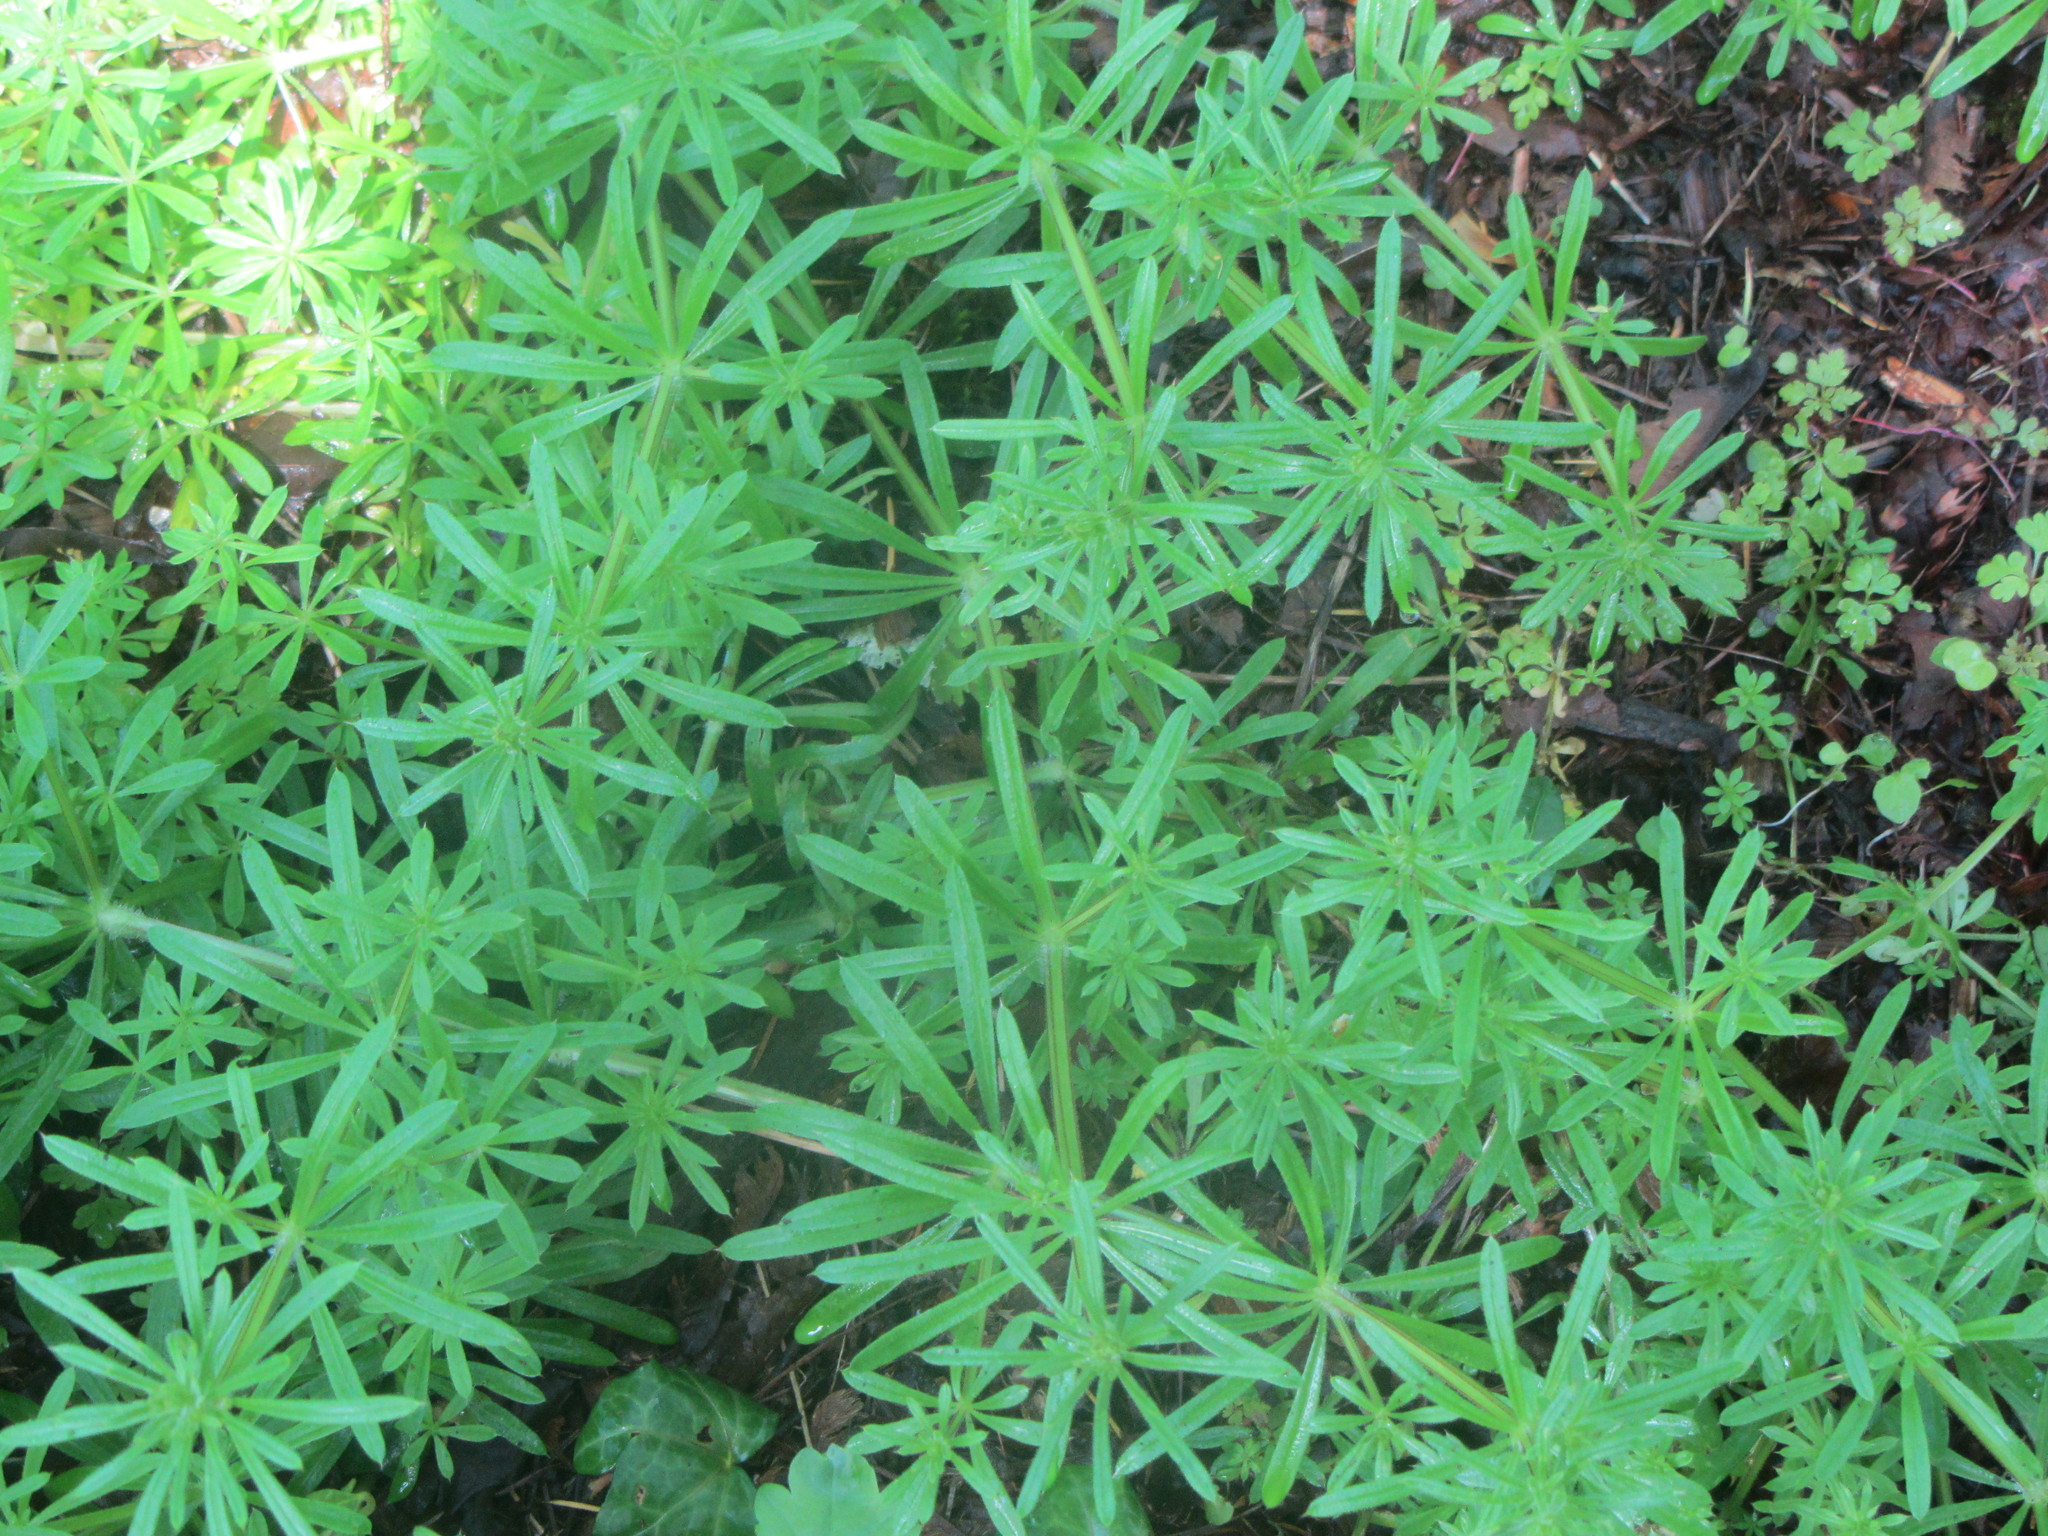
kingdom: Plantae
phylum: Tracheophyta
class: Magnoliopsida
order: Gentianales
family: Rubiaceae
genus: Galium
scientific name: Galium aparine
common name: Cleavers
